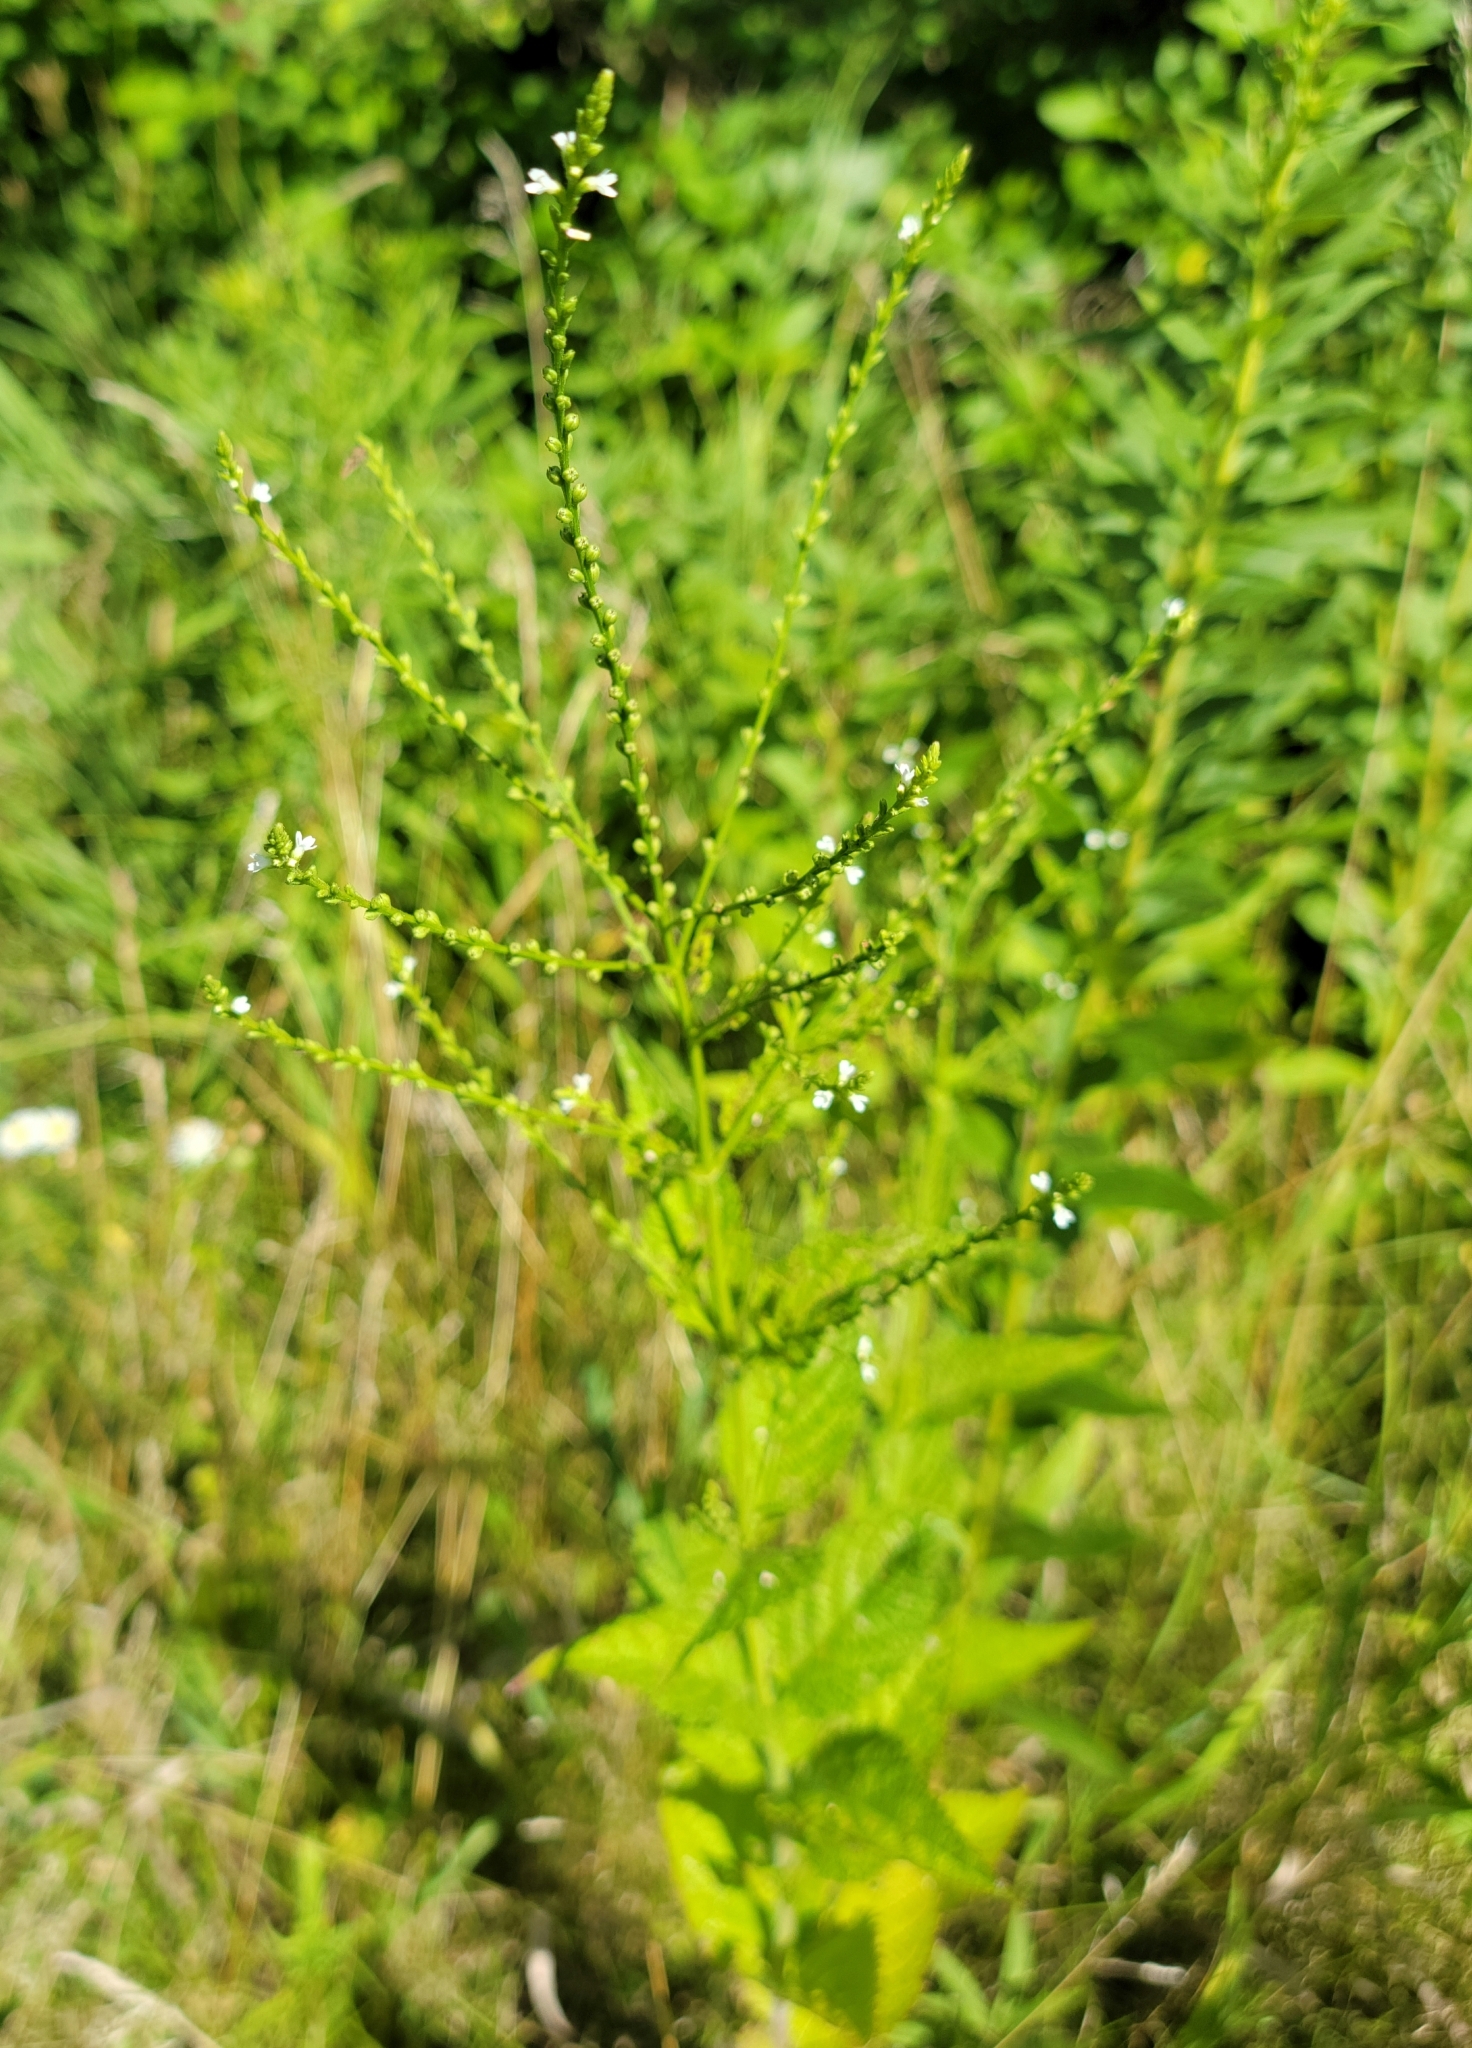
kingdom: Plantae
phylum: Tracheophyta
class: Magnoliopsida
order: Lamiales
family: Verbenaceae
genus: Verbena
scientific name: Verbena urticifolia
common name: Nettle-leaved vervain
